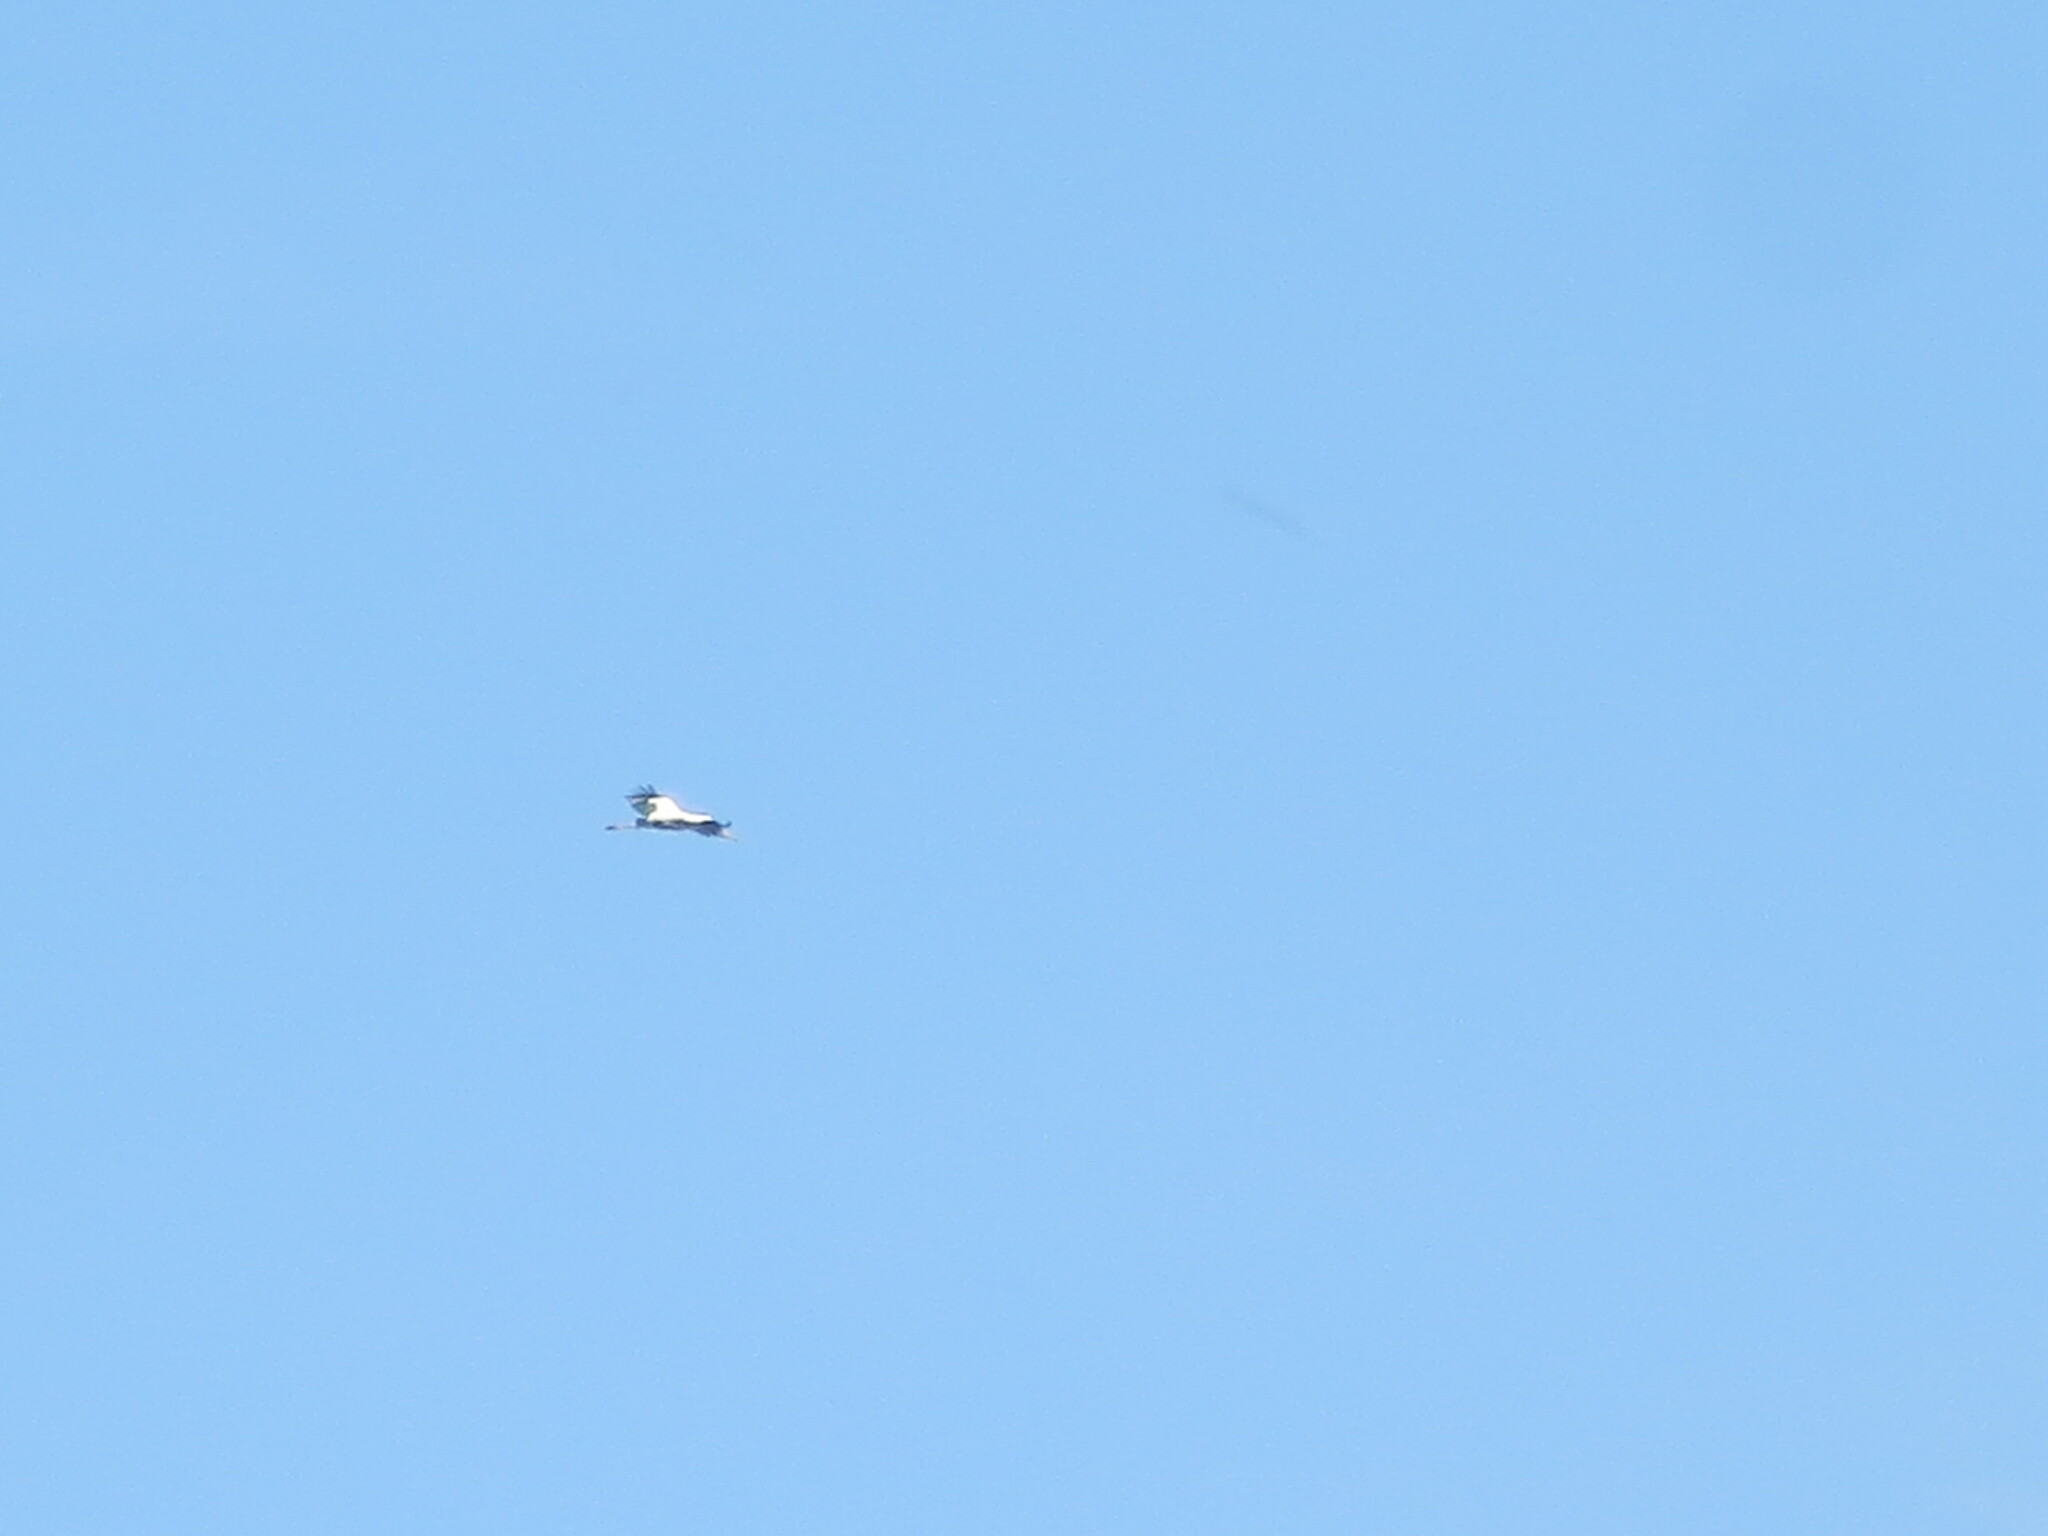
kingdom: Animalia
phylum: Chordata
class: Aves
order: Ciconiiformes
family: Ciconiidae
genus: Mycteria
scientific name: Mycteria americana
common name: Wood stork
